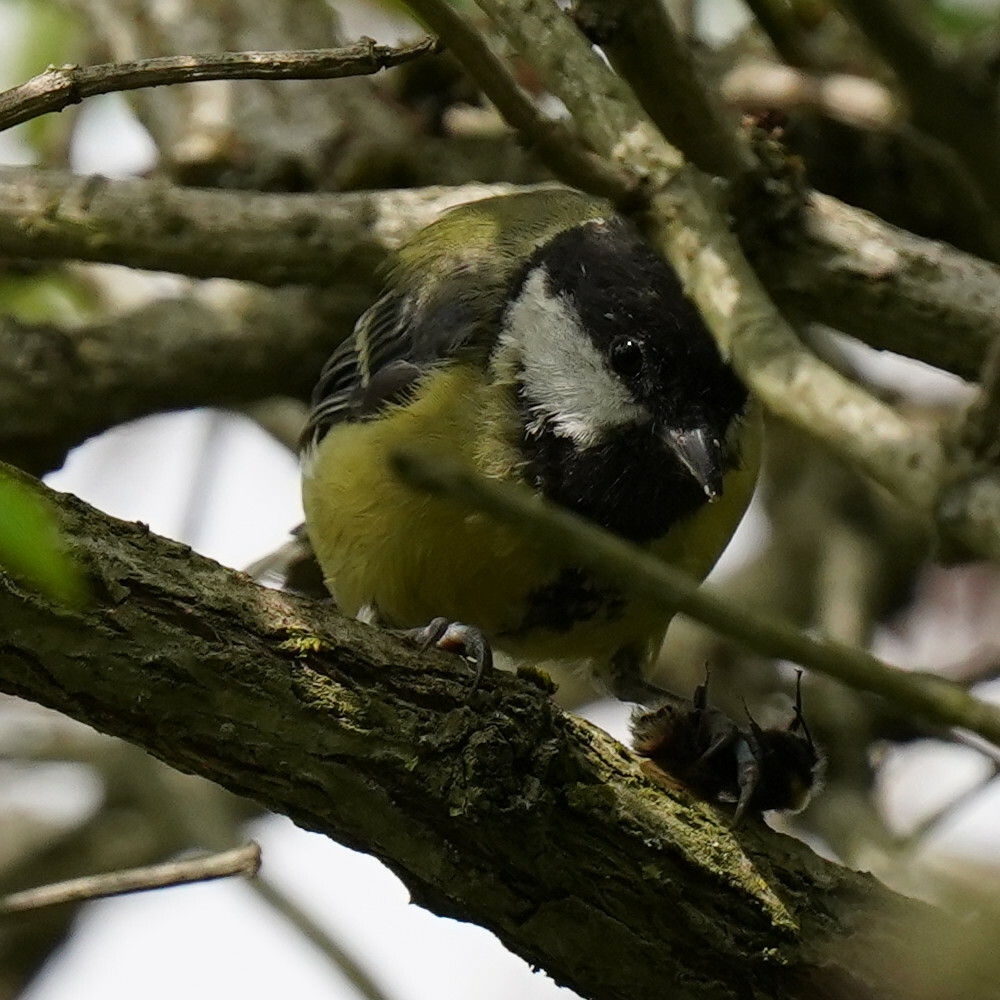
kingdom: Animalia
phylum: Chordata
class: Aves
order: Passeriformes
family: Paridae
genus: Parus
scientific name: Parus major
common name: Great tit
